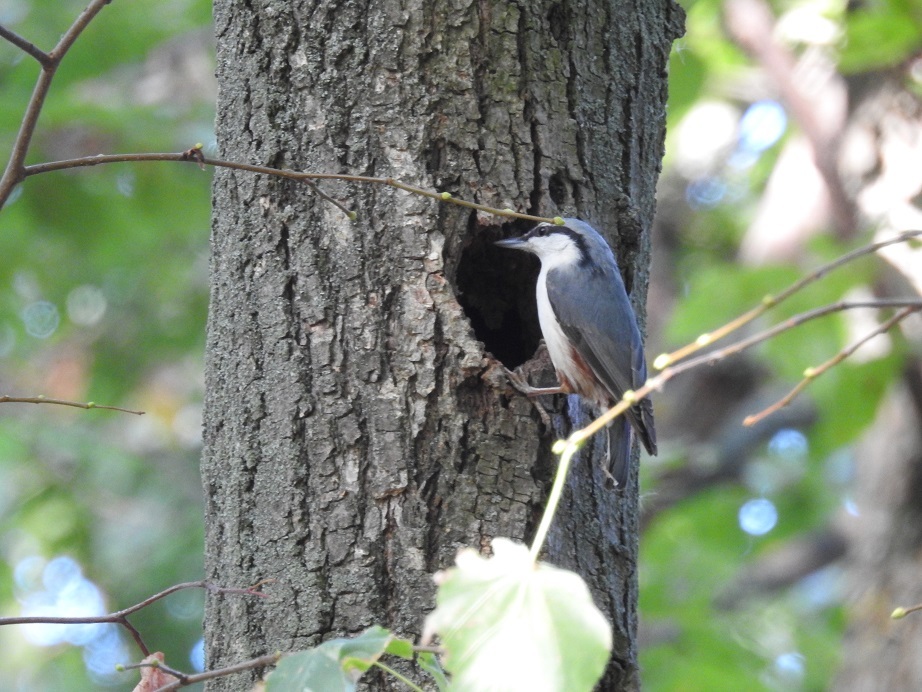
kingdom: Animalia
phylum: Chordata
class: Aves
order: Passeriformes
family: Sittidae
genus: Sitta
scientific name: Sitta europaea
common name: Eurasian nuthatch
